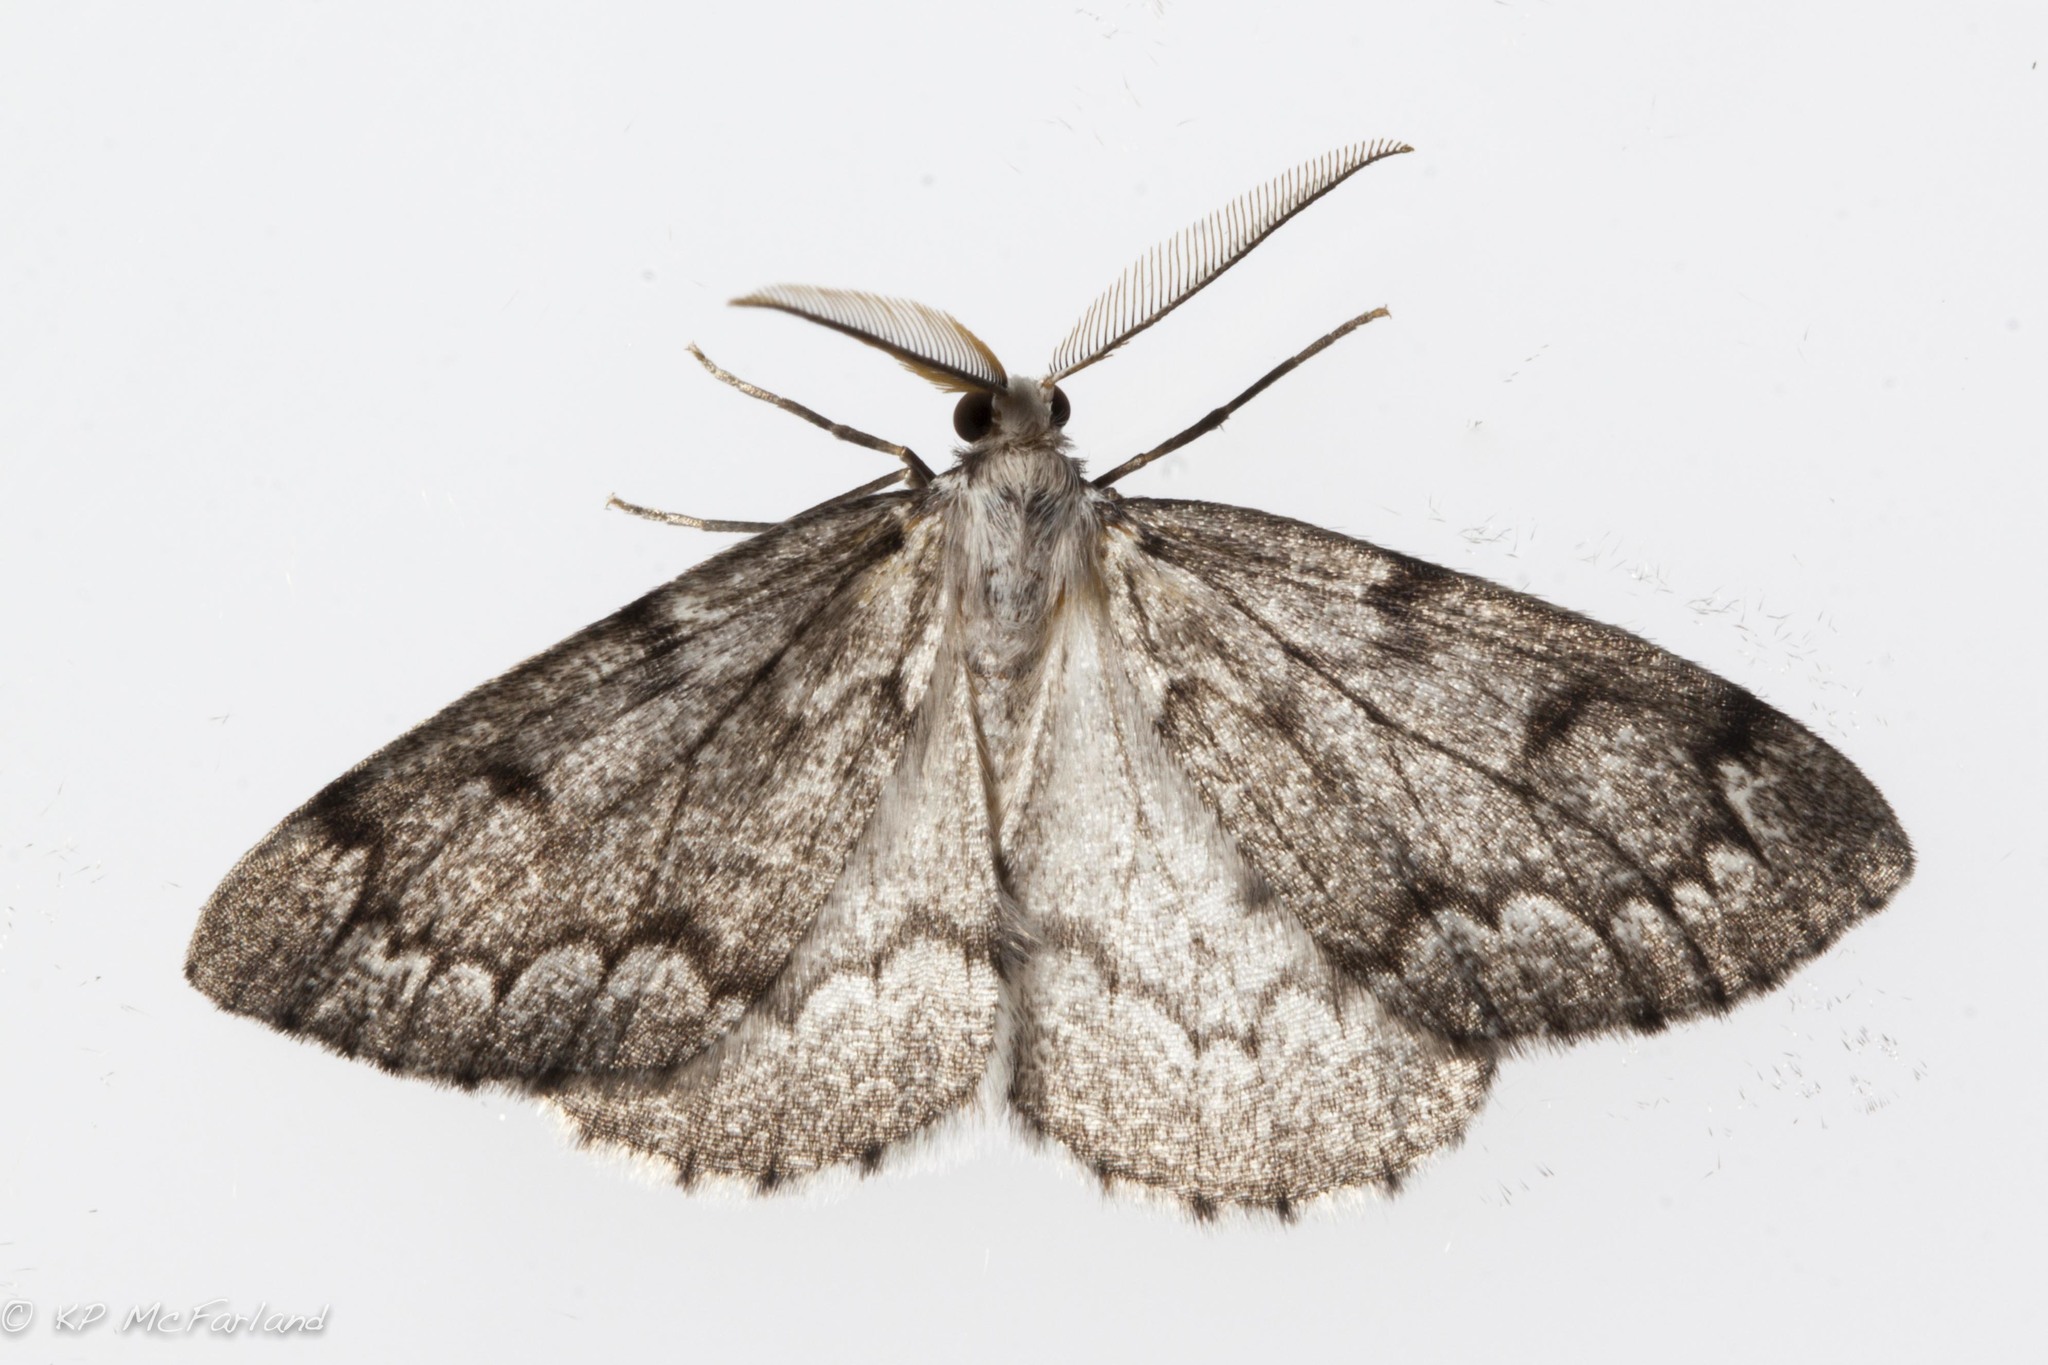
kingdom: Animalia
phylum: Arthropoda
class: Insecta
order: Lepidoptera
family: Geometridae
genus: Nepytia
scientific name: Nepytia canosaria
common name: False hemlock looper
